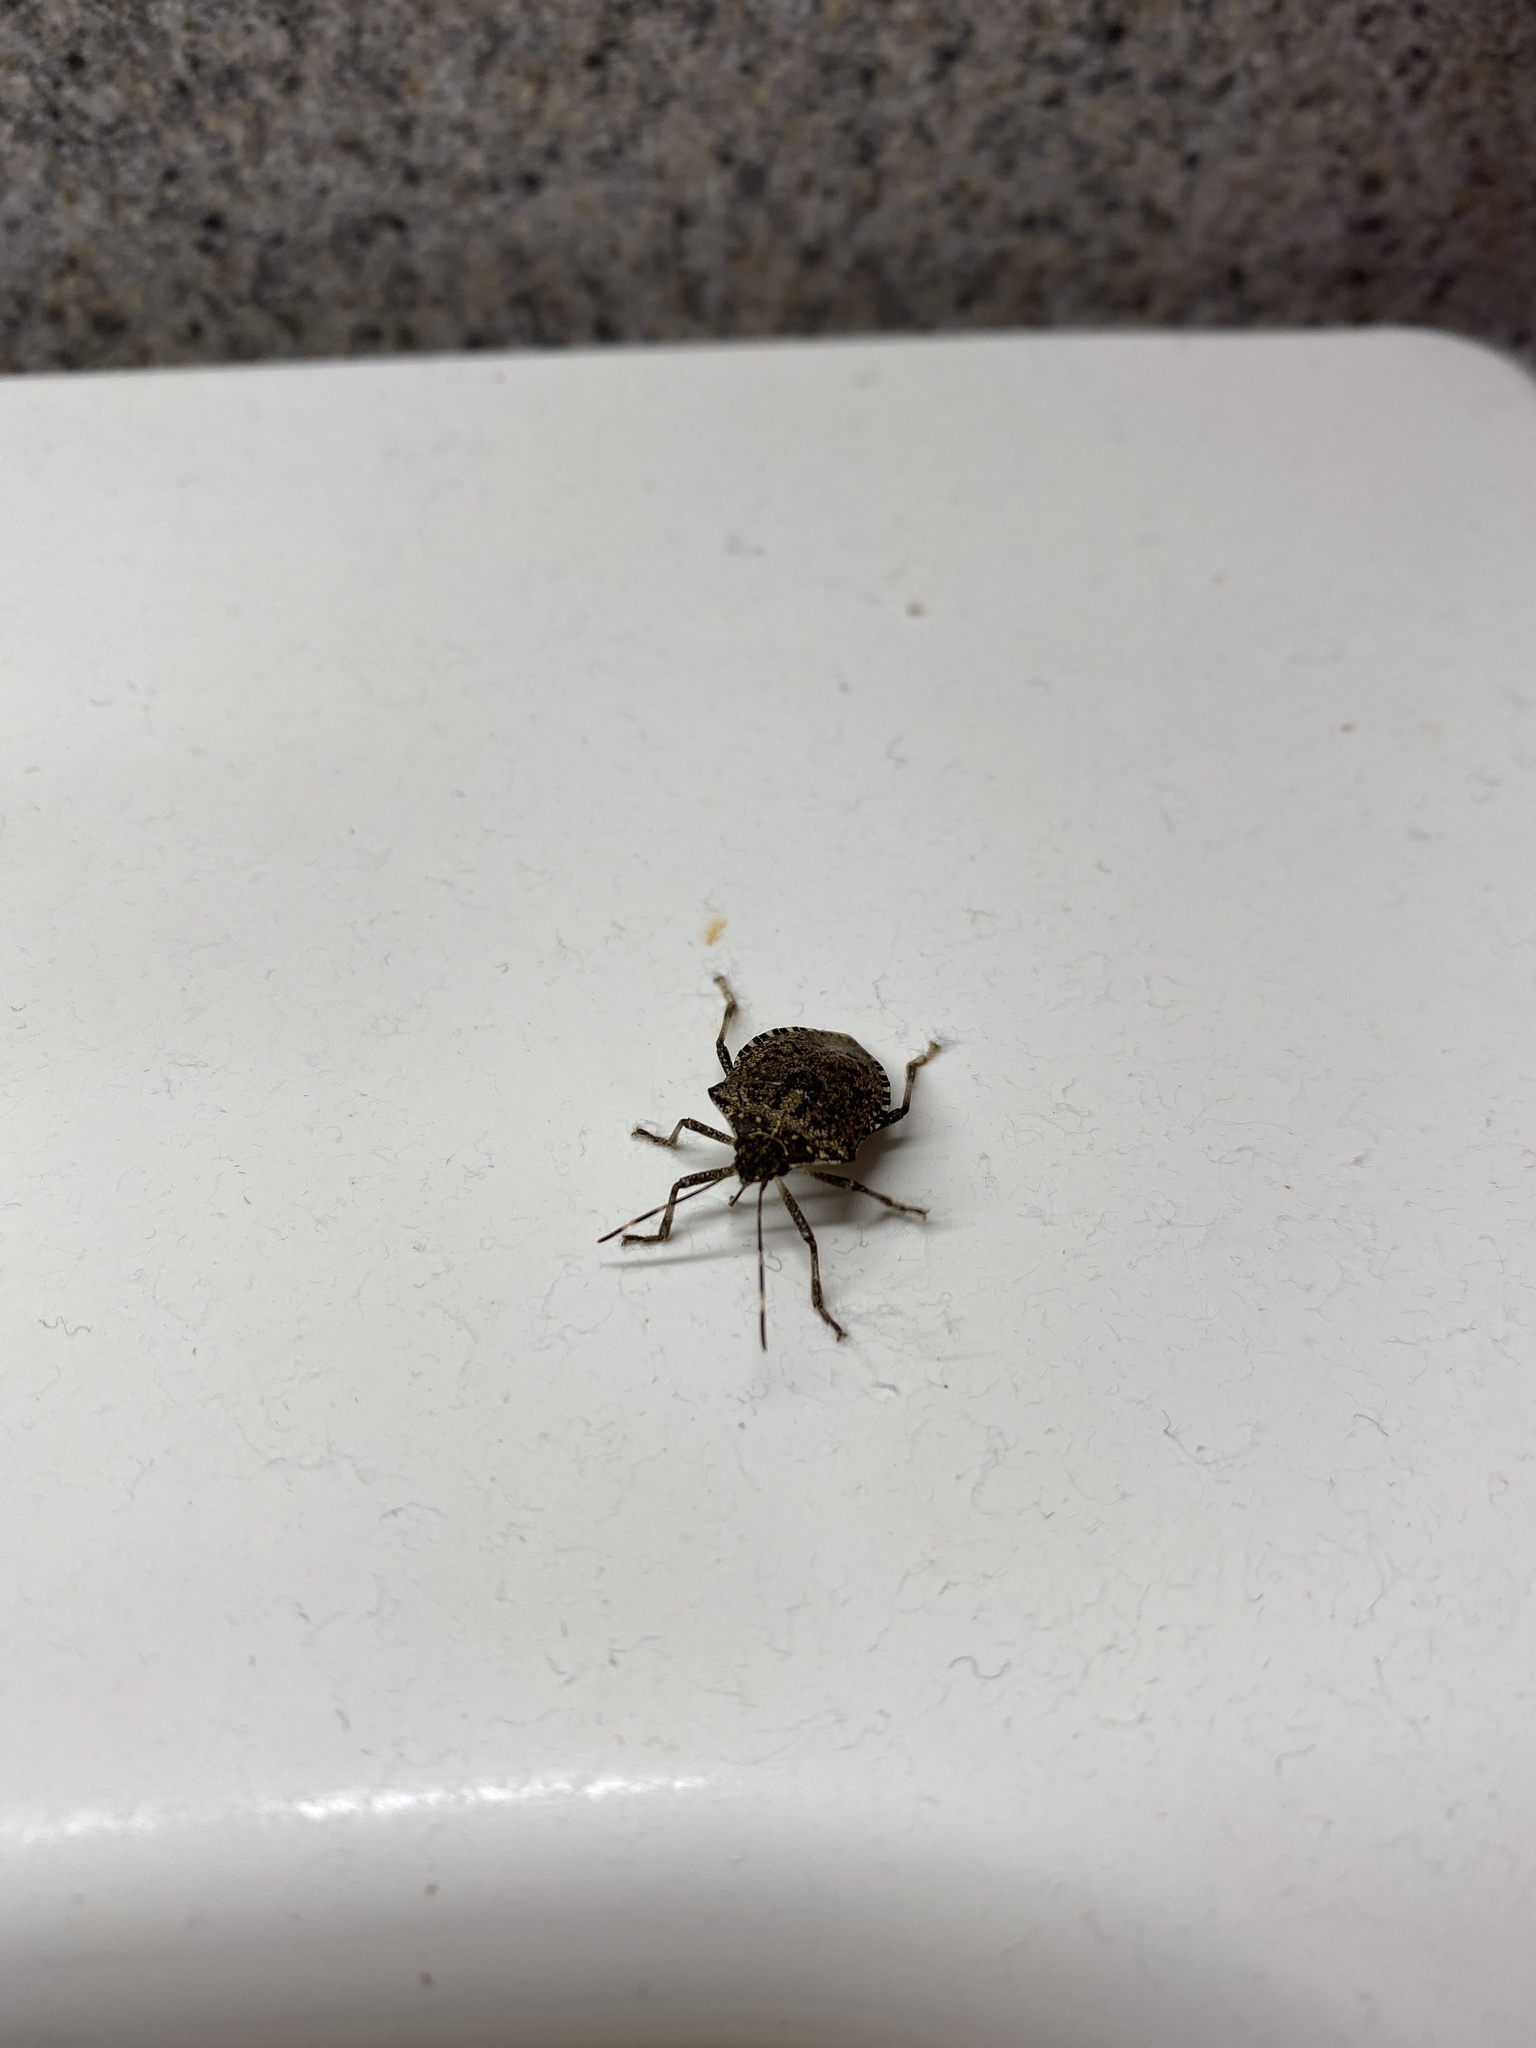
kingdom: Animalia
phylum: Arthropoda
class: Insecta
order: Hemiptera
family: Pentatomidae
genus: Halyomorpha
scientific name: Halyomorpha halys
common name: Brown marmorated stink bug
